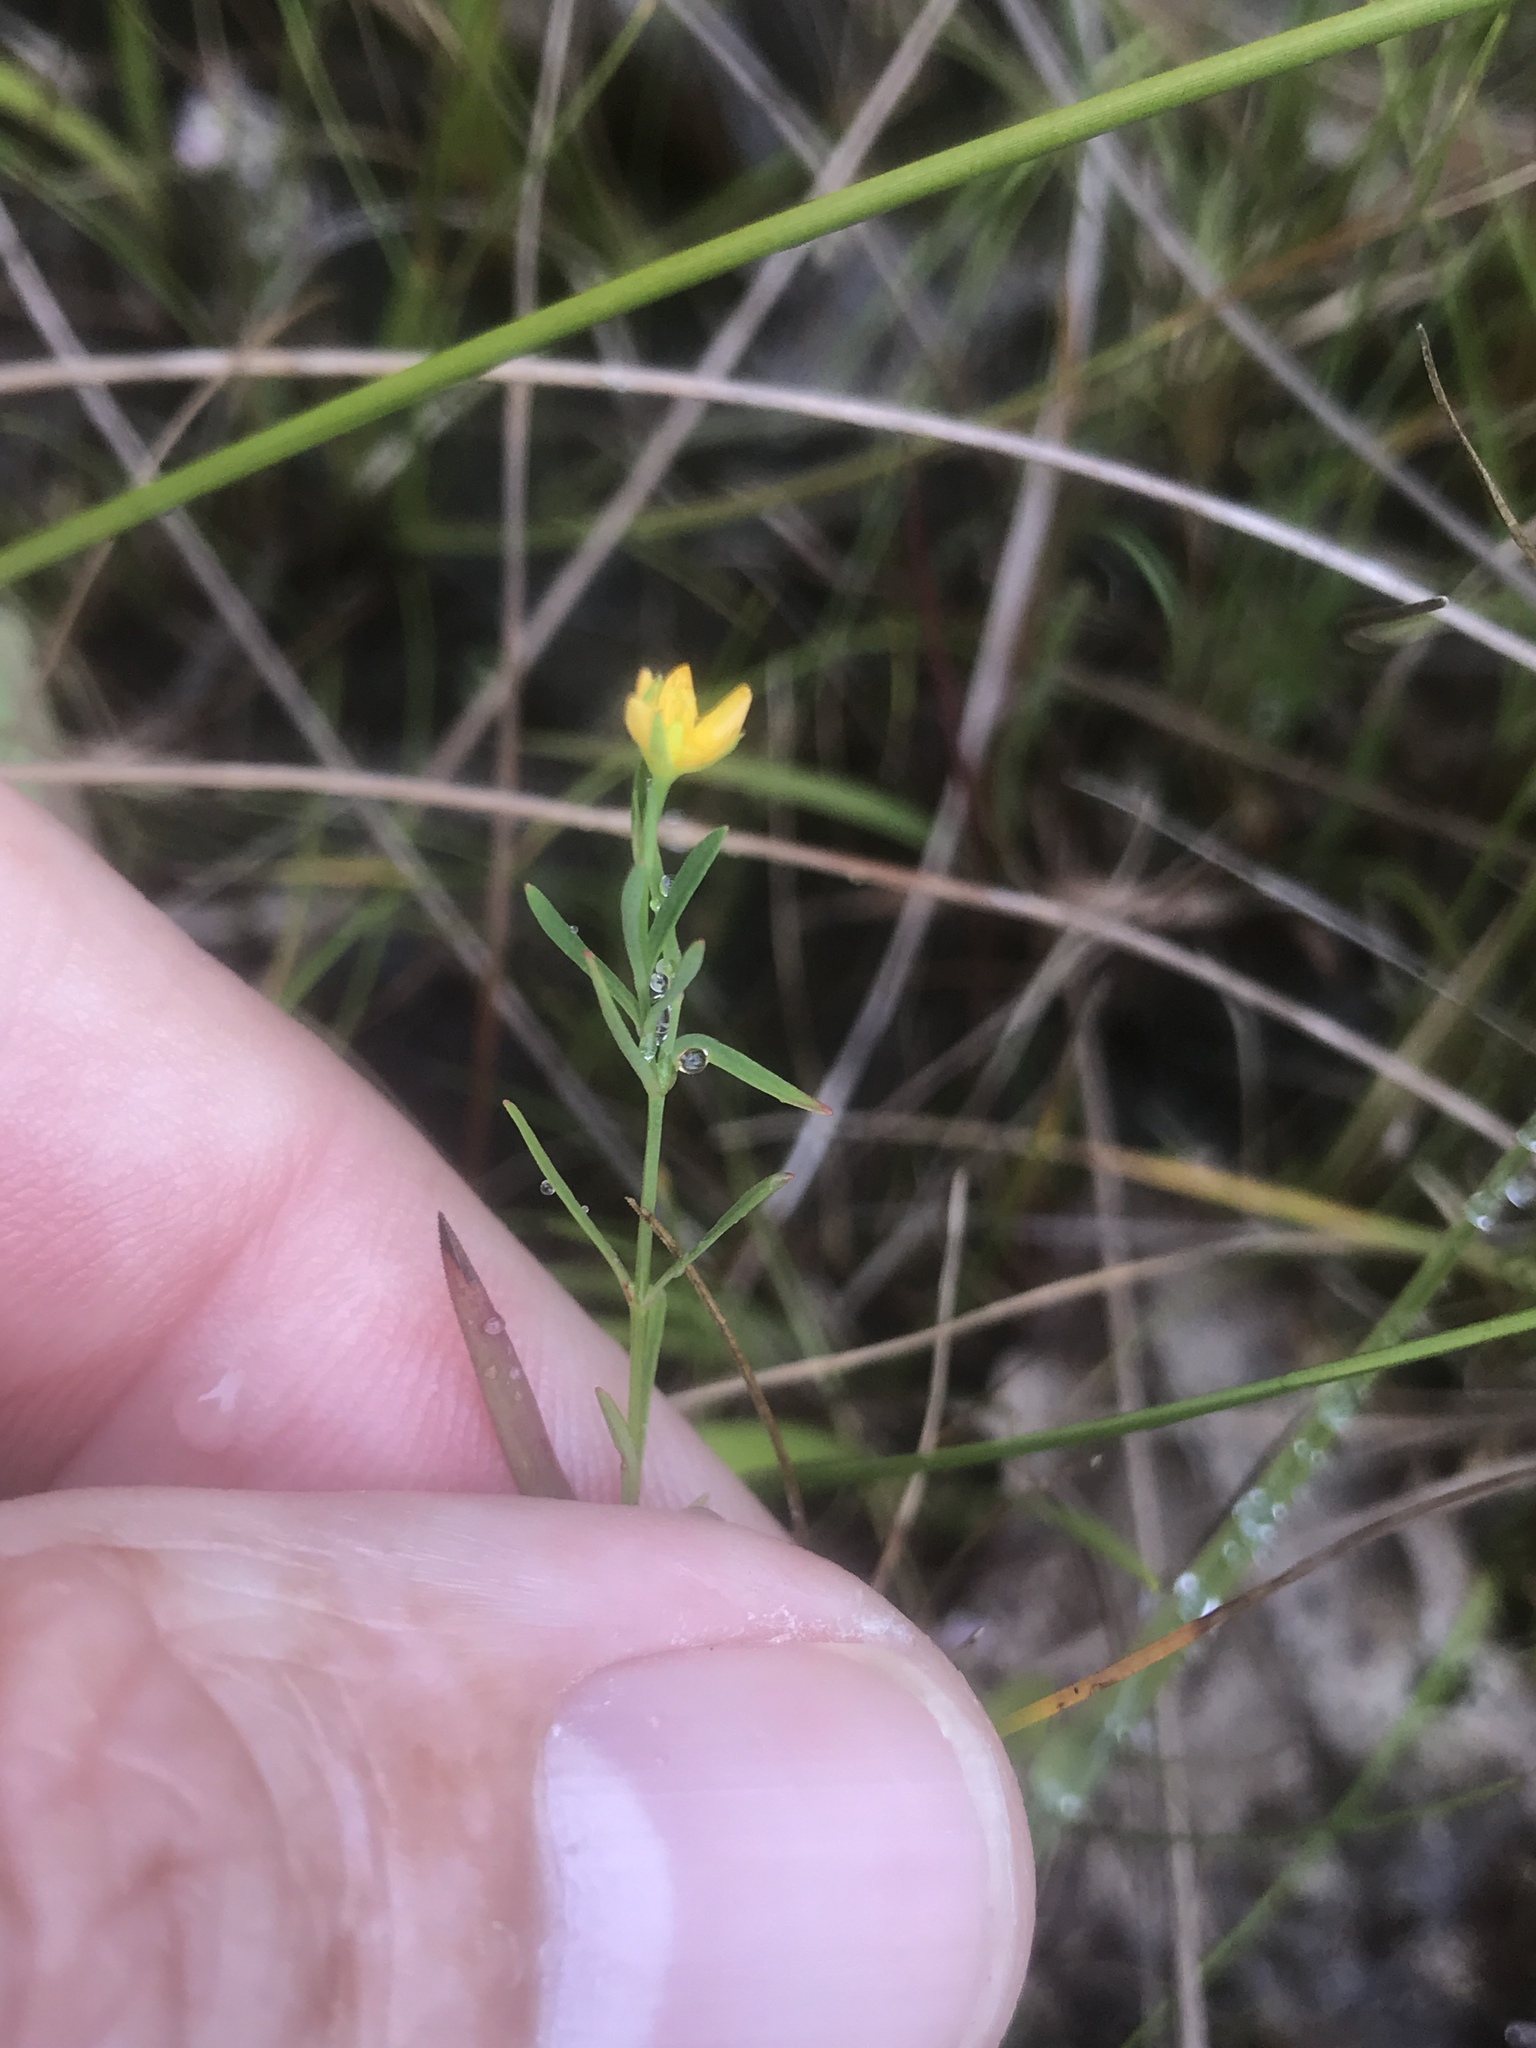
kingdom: Plantae
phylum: Tracheophyta
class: Magnoliopsida
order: Malpighiales
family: Hypericaceae
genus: Hypericum
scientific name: Hypericum canadense
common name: Irish st. john's-wort
